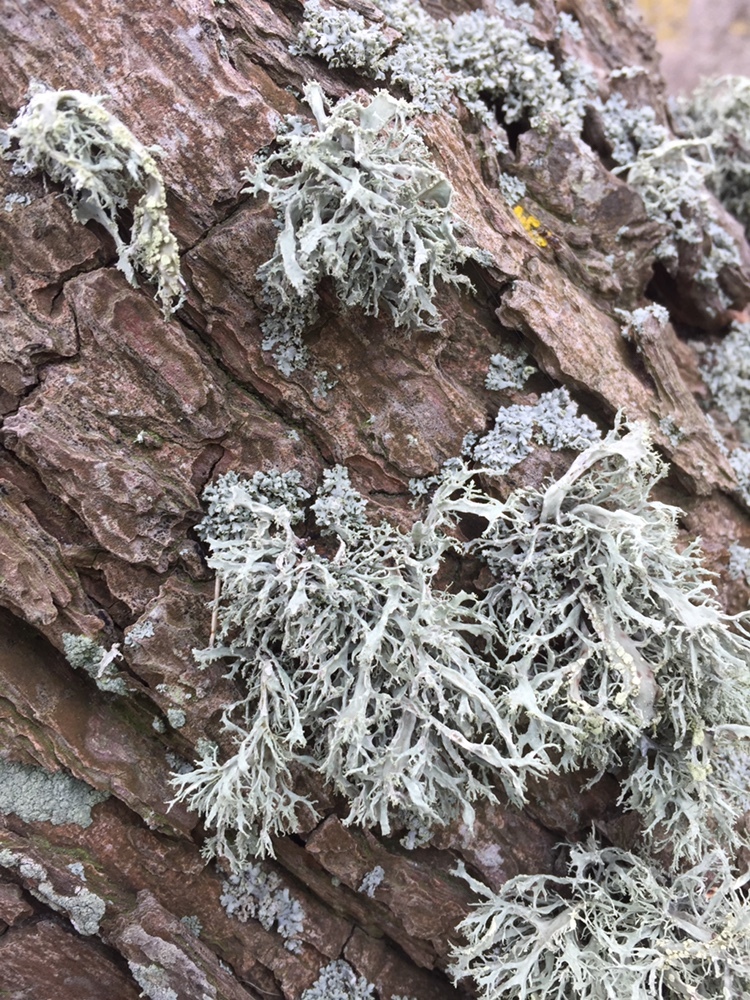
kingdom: Fungi
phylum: Ascomycota
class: Lecanoromycetes
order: Lecanorales
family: Ramalinaceae
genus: Ramalina
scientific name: Ramalina farinacea
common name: Farinose cartilage lichen
